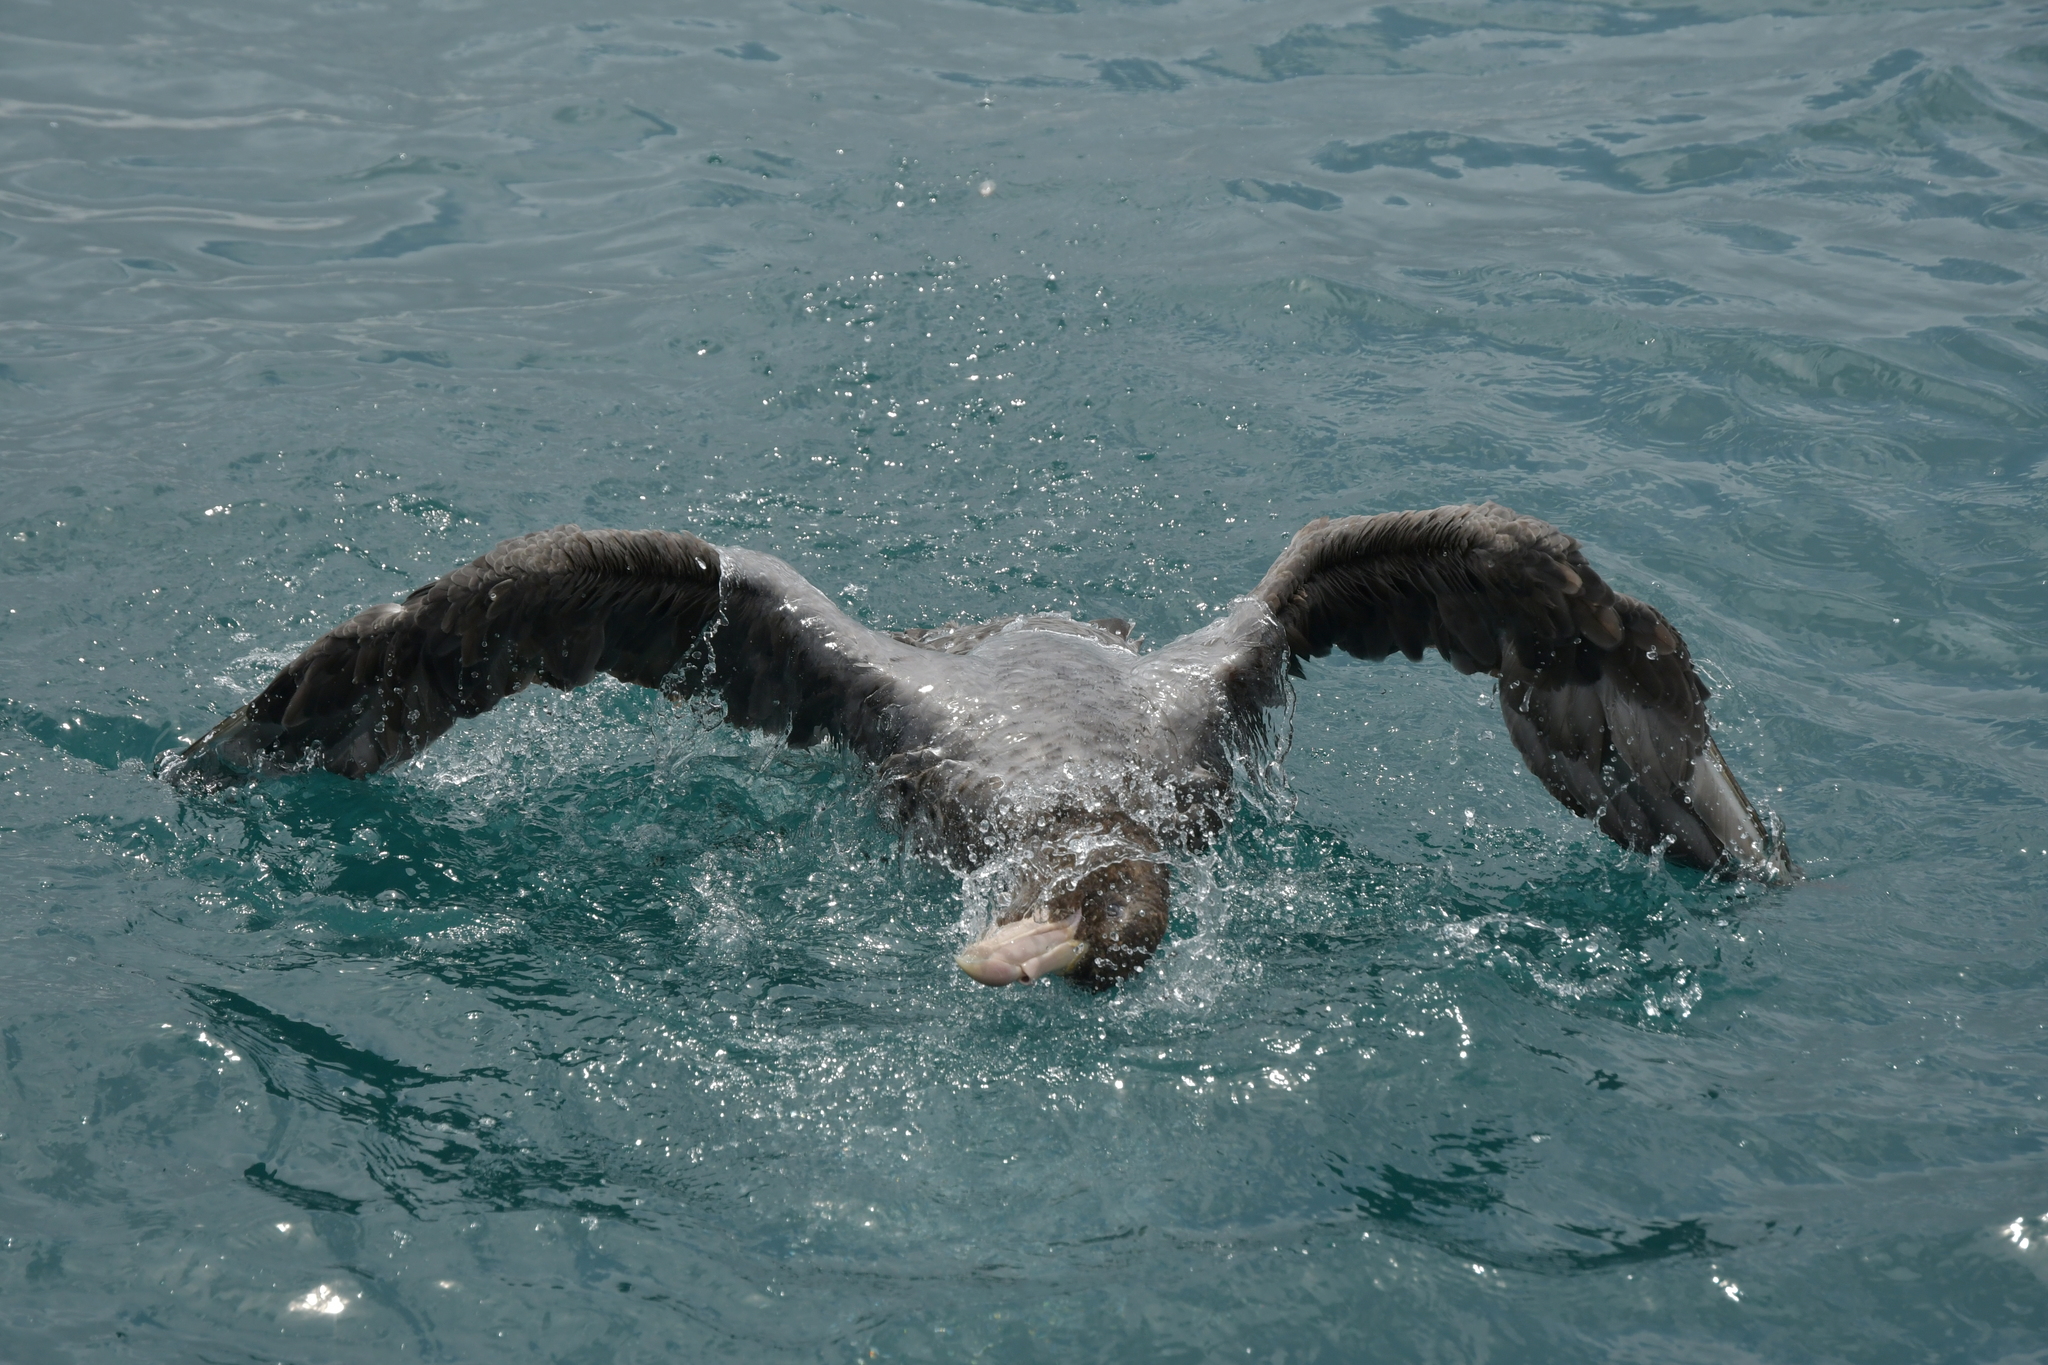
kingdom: Animalia
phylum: Chordata
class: Aves
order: Procellariiformes
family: Procellariidae
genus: Macronectes
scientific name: Macronectes halli
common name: Northern giant petrel
